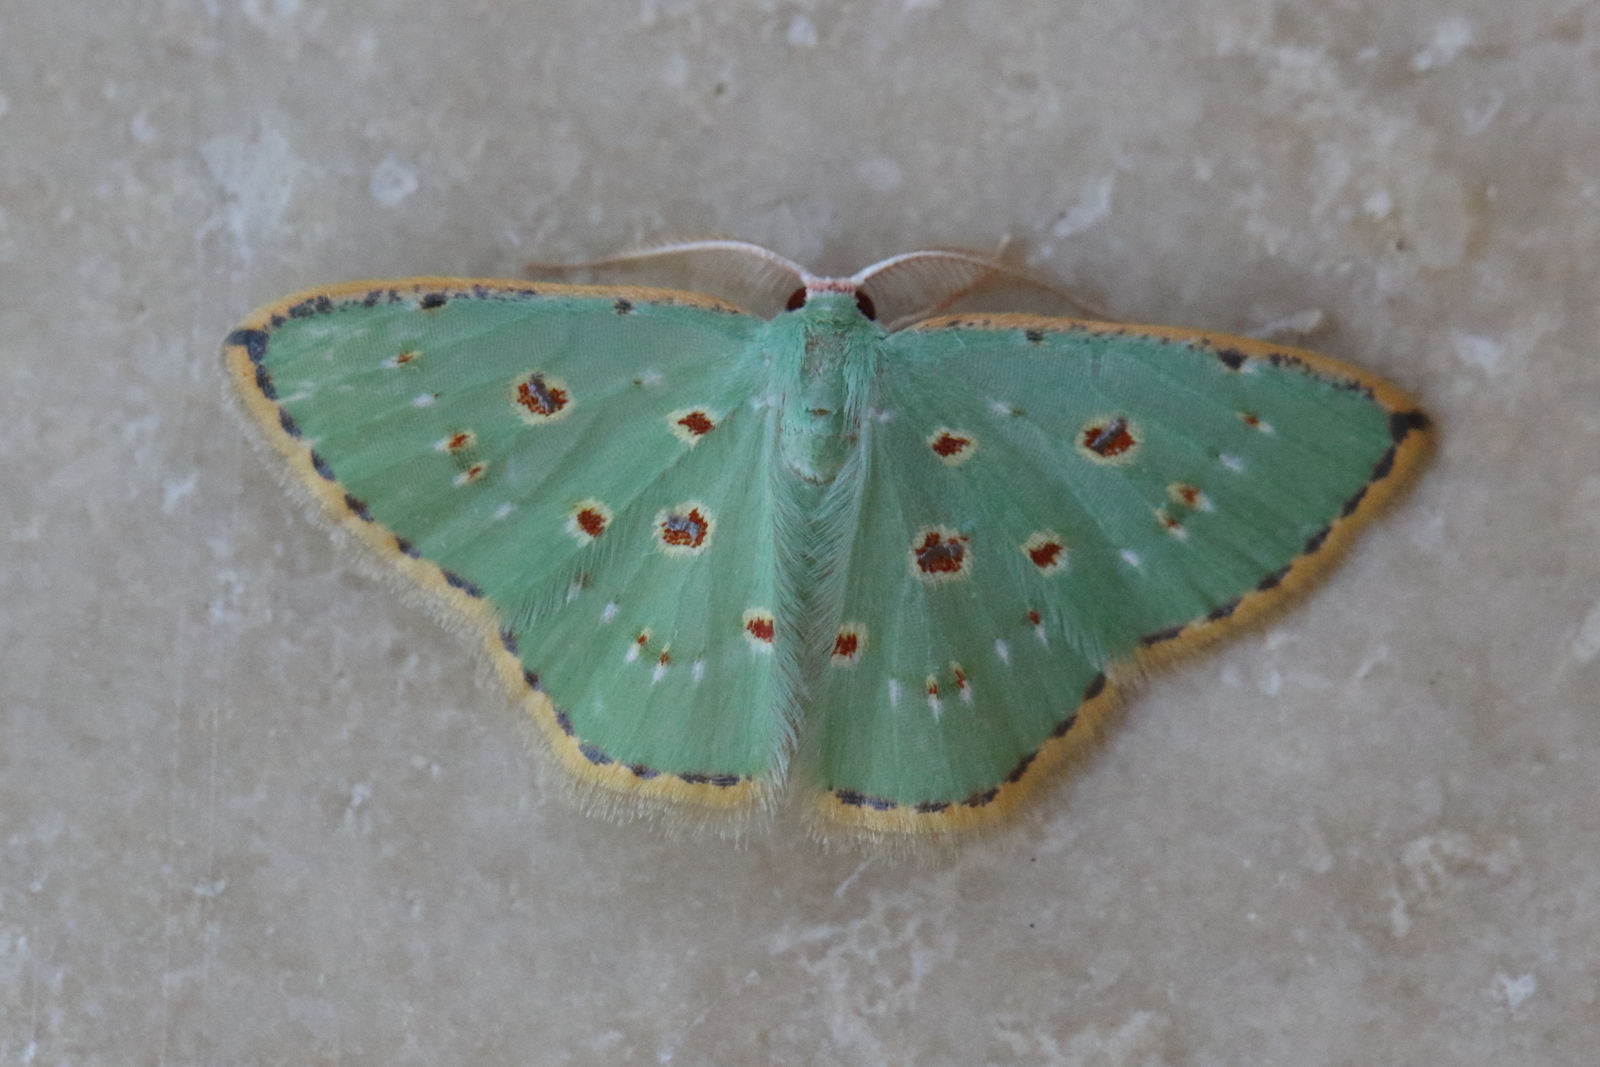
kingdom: Animalia
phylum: Arthropoda
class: Insecta
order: Lepidoptera
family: Geometridae
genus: Comostola
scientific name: Comostola laesaria
